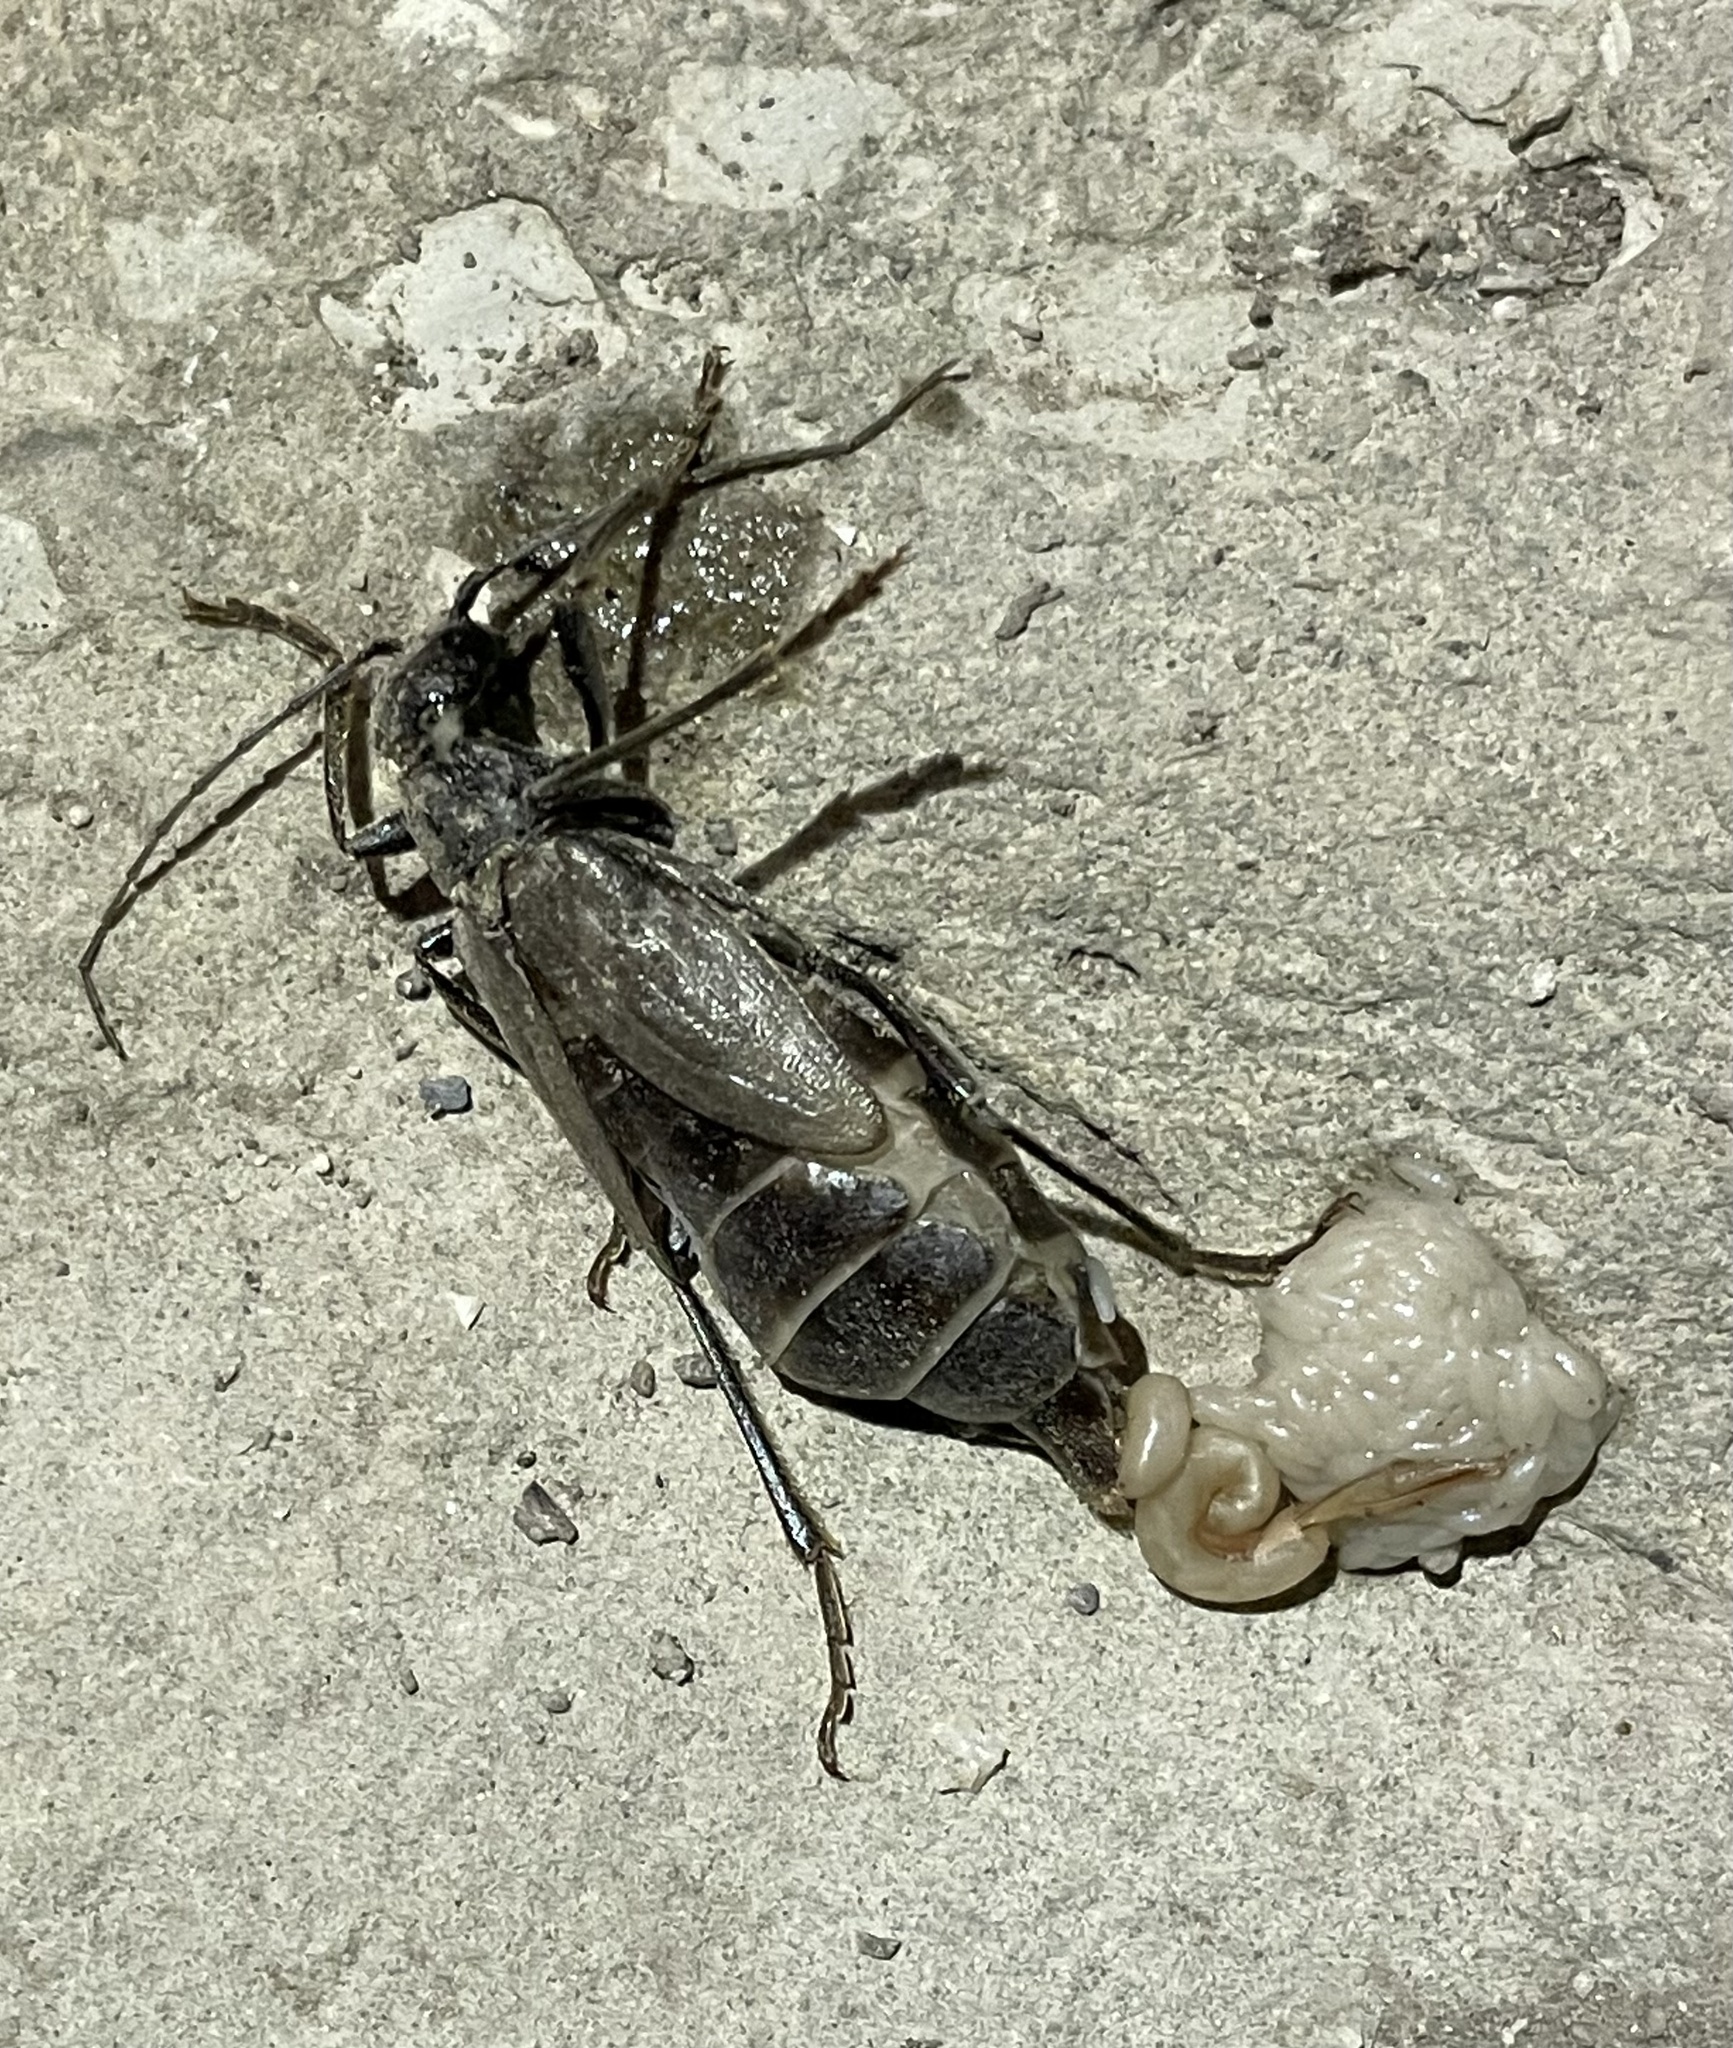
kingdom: Animalia
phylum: Arthropoda
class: Insecta
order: Coleoptera
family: Cerambycidae
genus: Vesperus
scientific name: Vesperus xatarti
